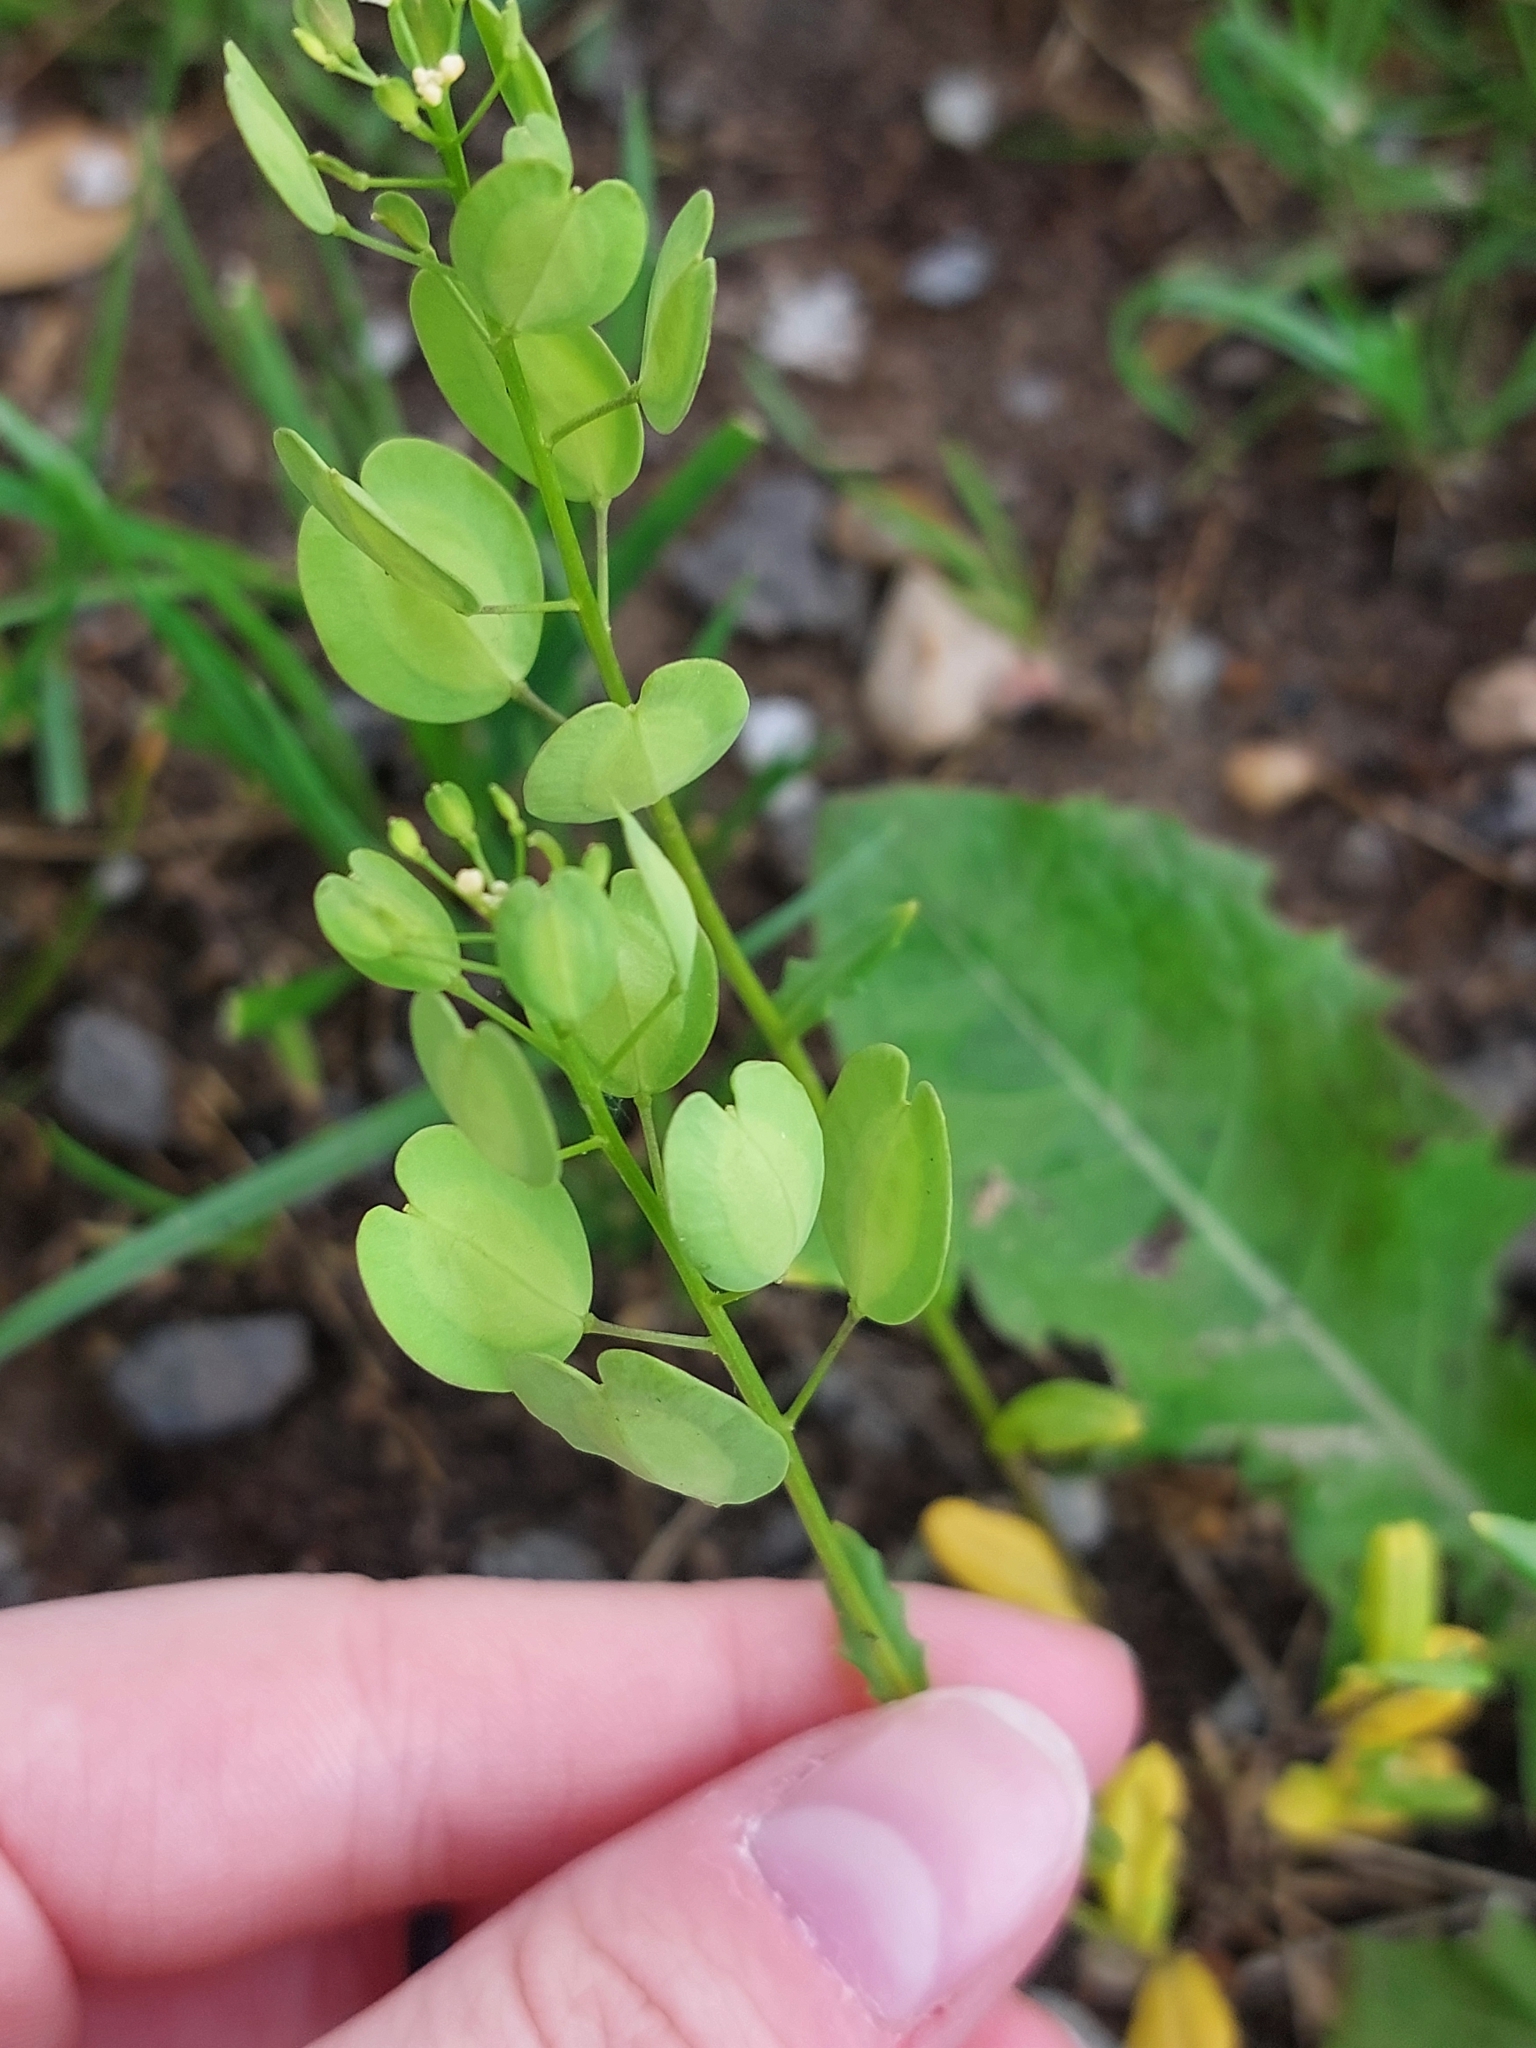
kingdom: Plantae
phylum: Tracheophyta
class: Magnoliopsida
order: Brassicales
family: Brassicaceae
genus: Thlaspi
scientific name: Thlaspi arvense
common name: Field pennycress
